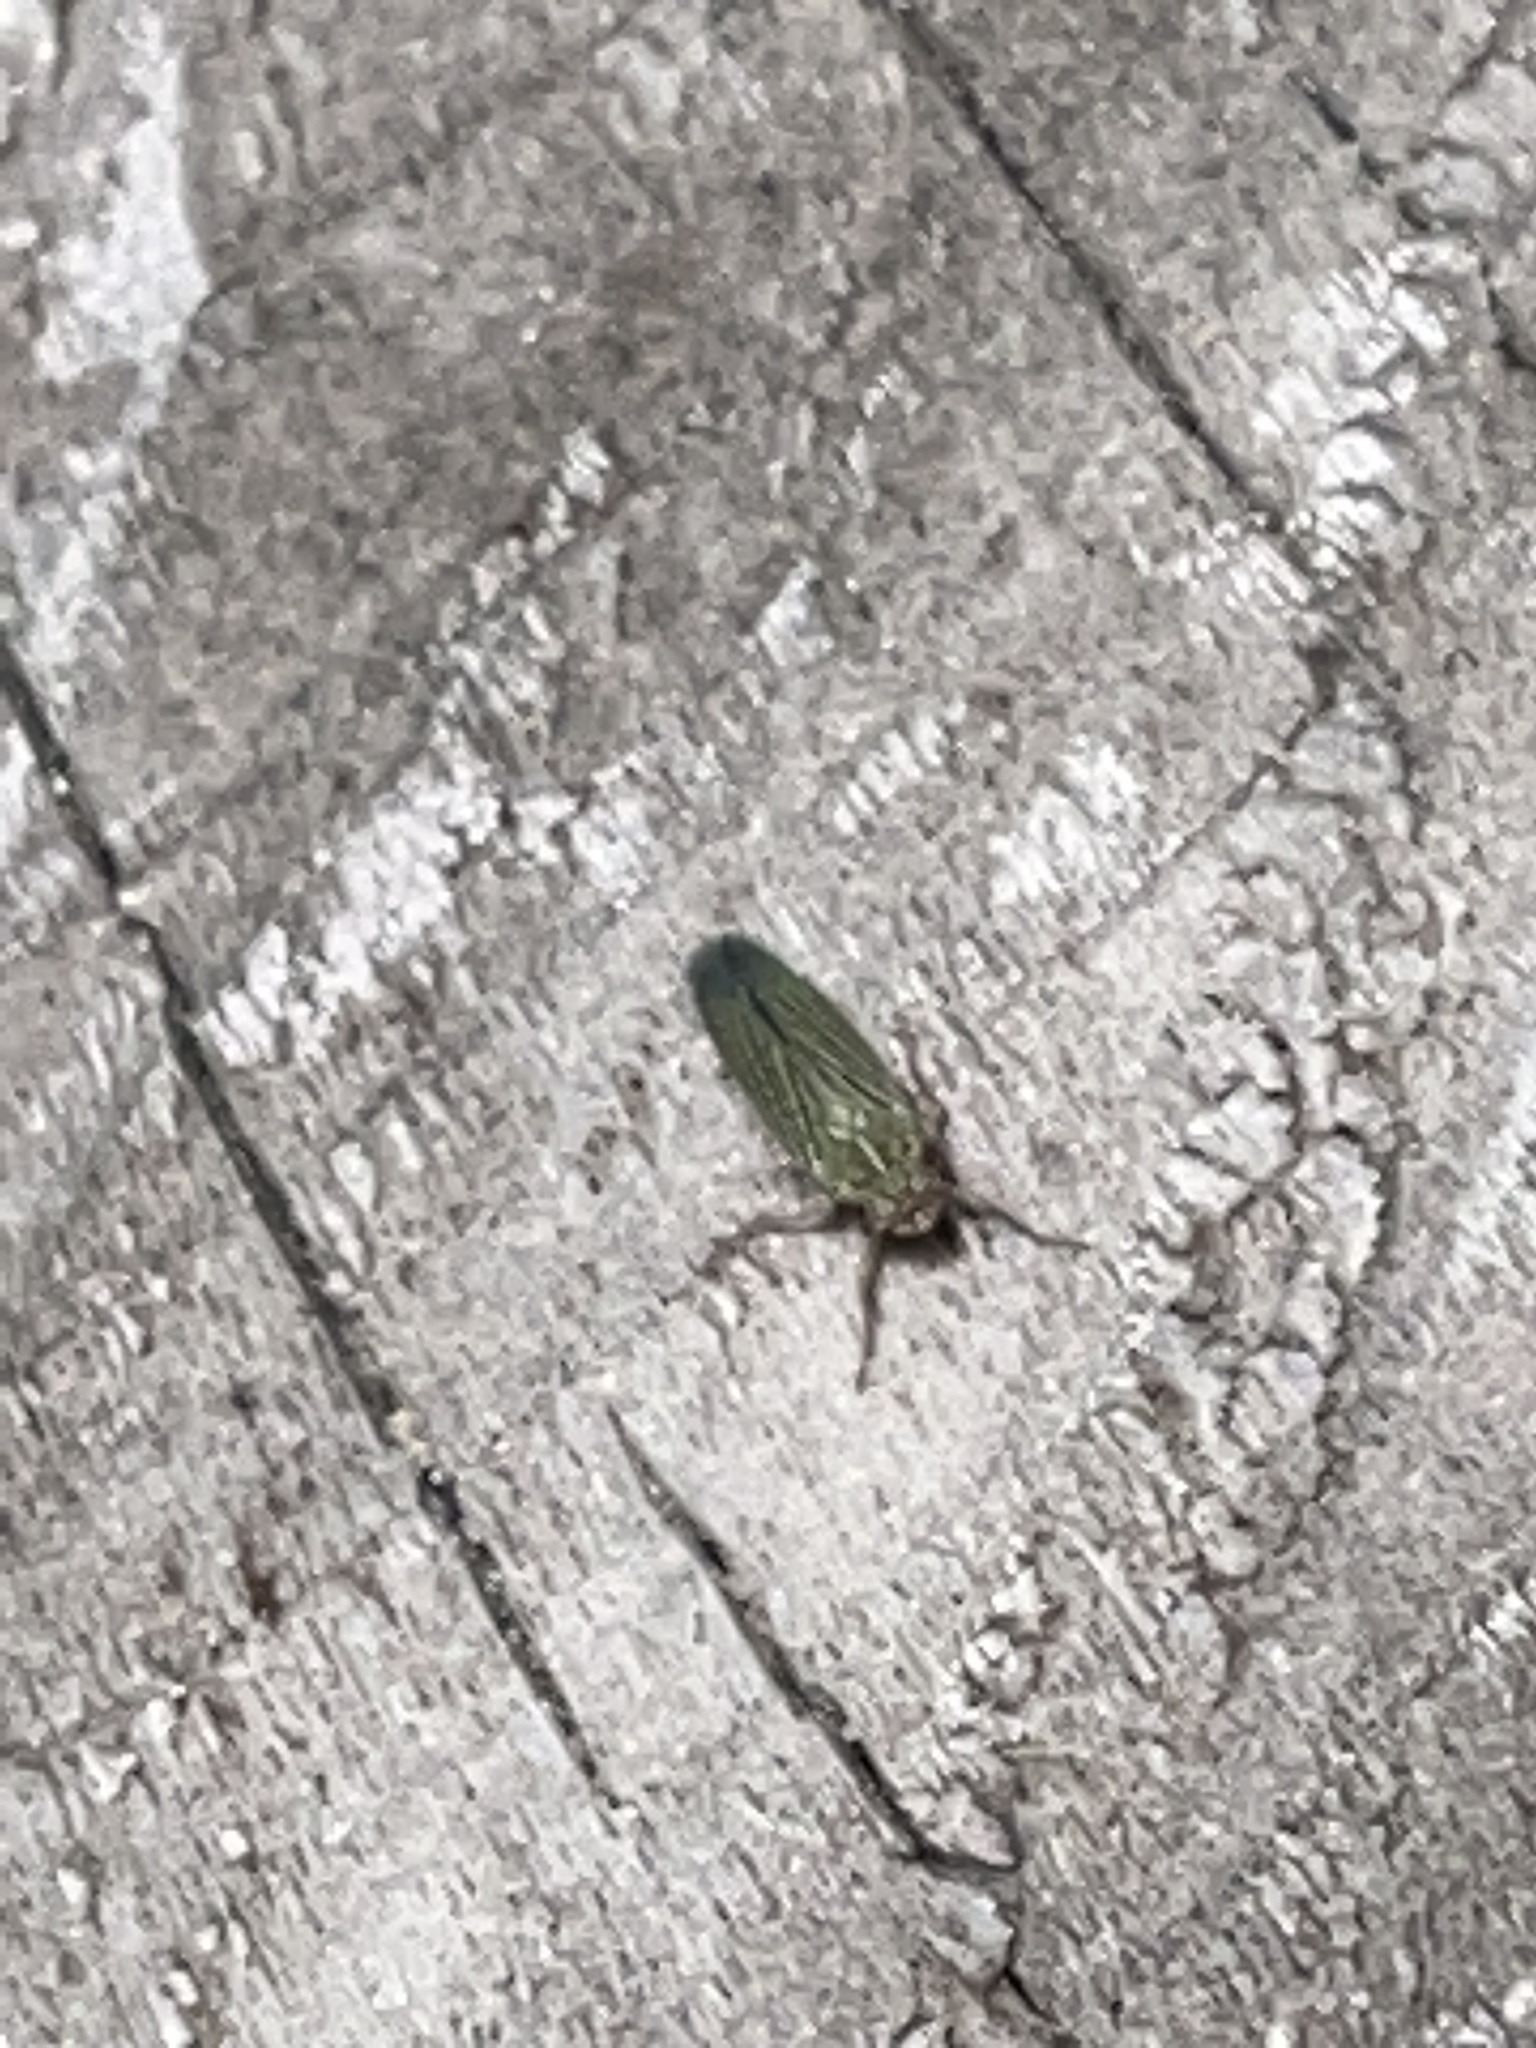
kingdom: Animalia
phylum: Arthropoda
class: Insecta
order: Hemiptera
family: Cicadellidae
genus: Xyphon
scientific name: Xyphon reticulatum
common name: Planthopper
